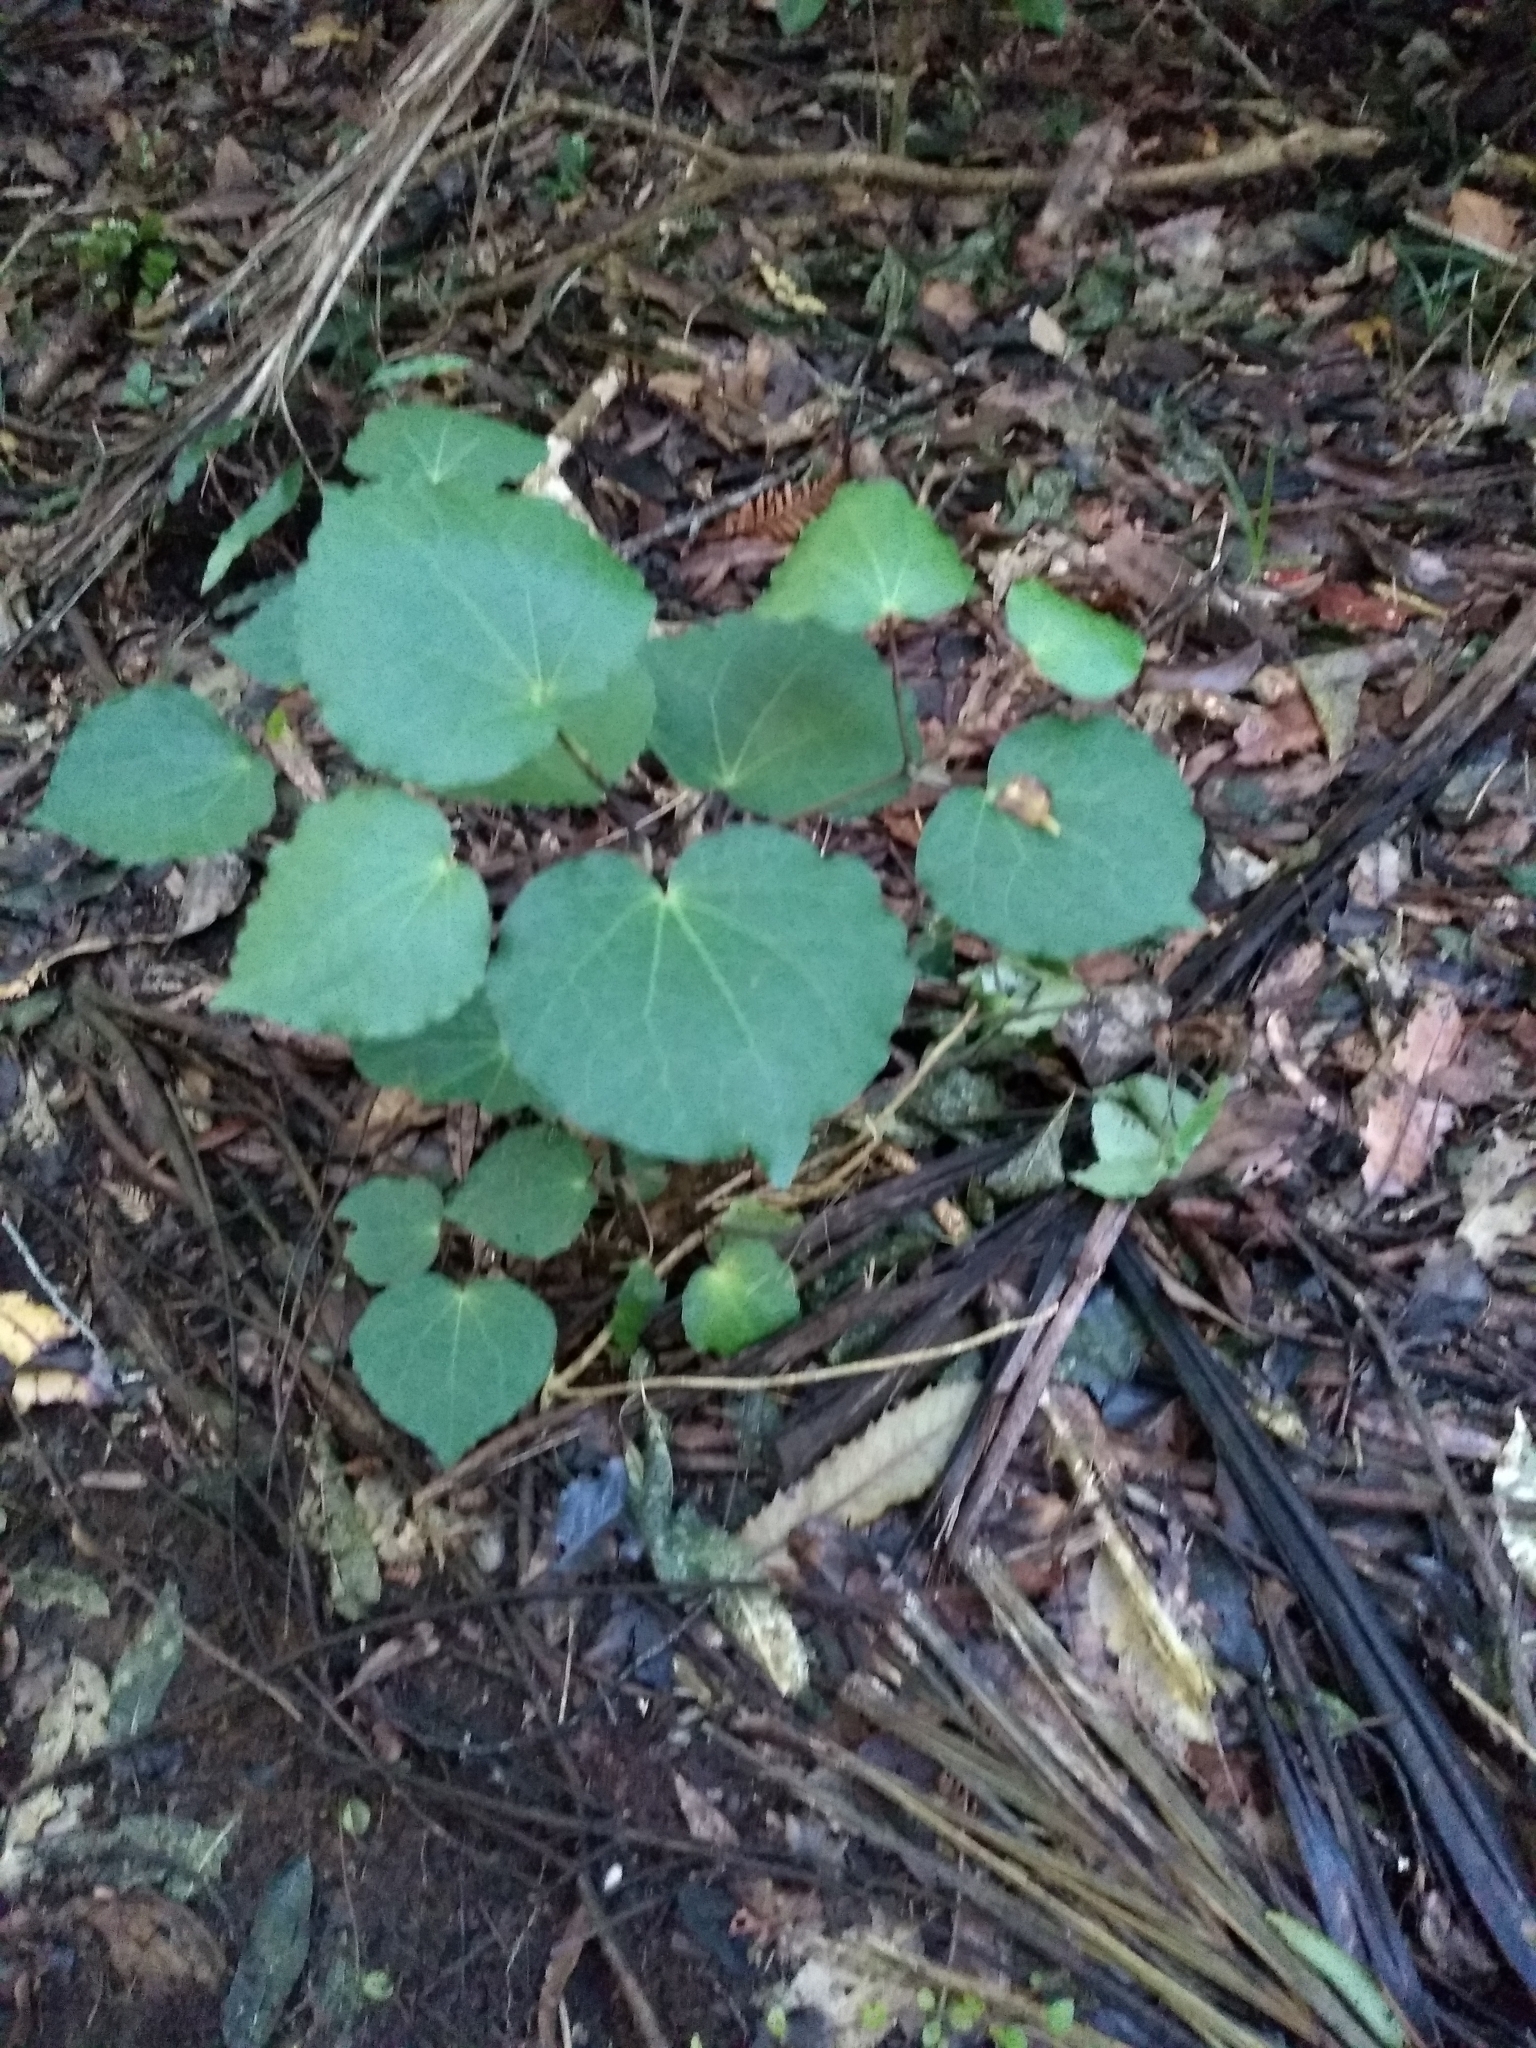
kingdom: Plantae
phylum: Tracheophyta
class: Magnoliopsida
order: Piperales
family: Piperaceae
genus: Macropiper
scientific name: Macropiper excelsum
